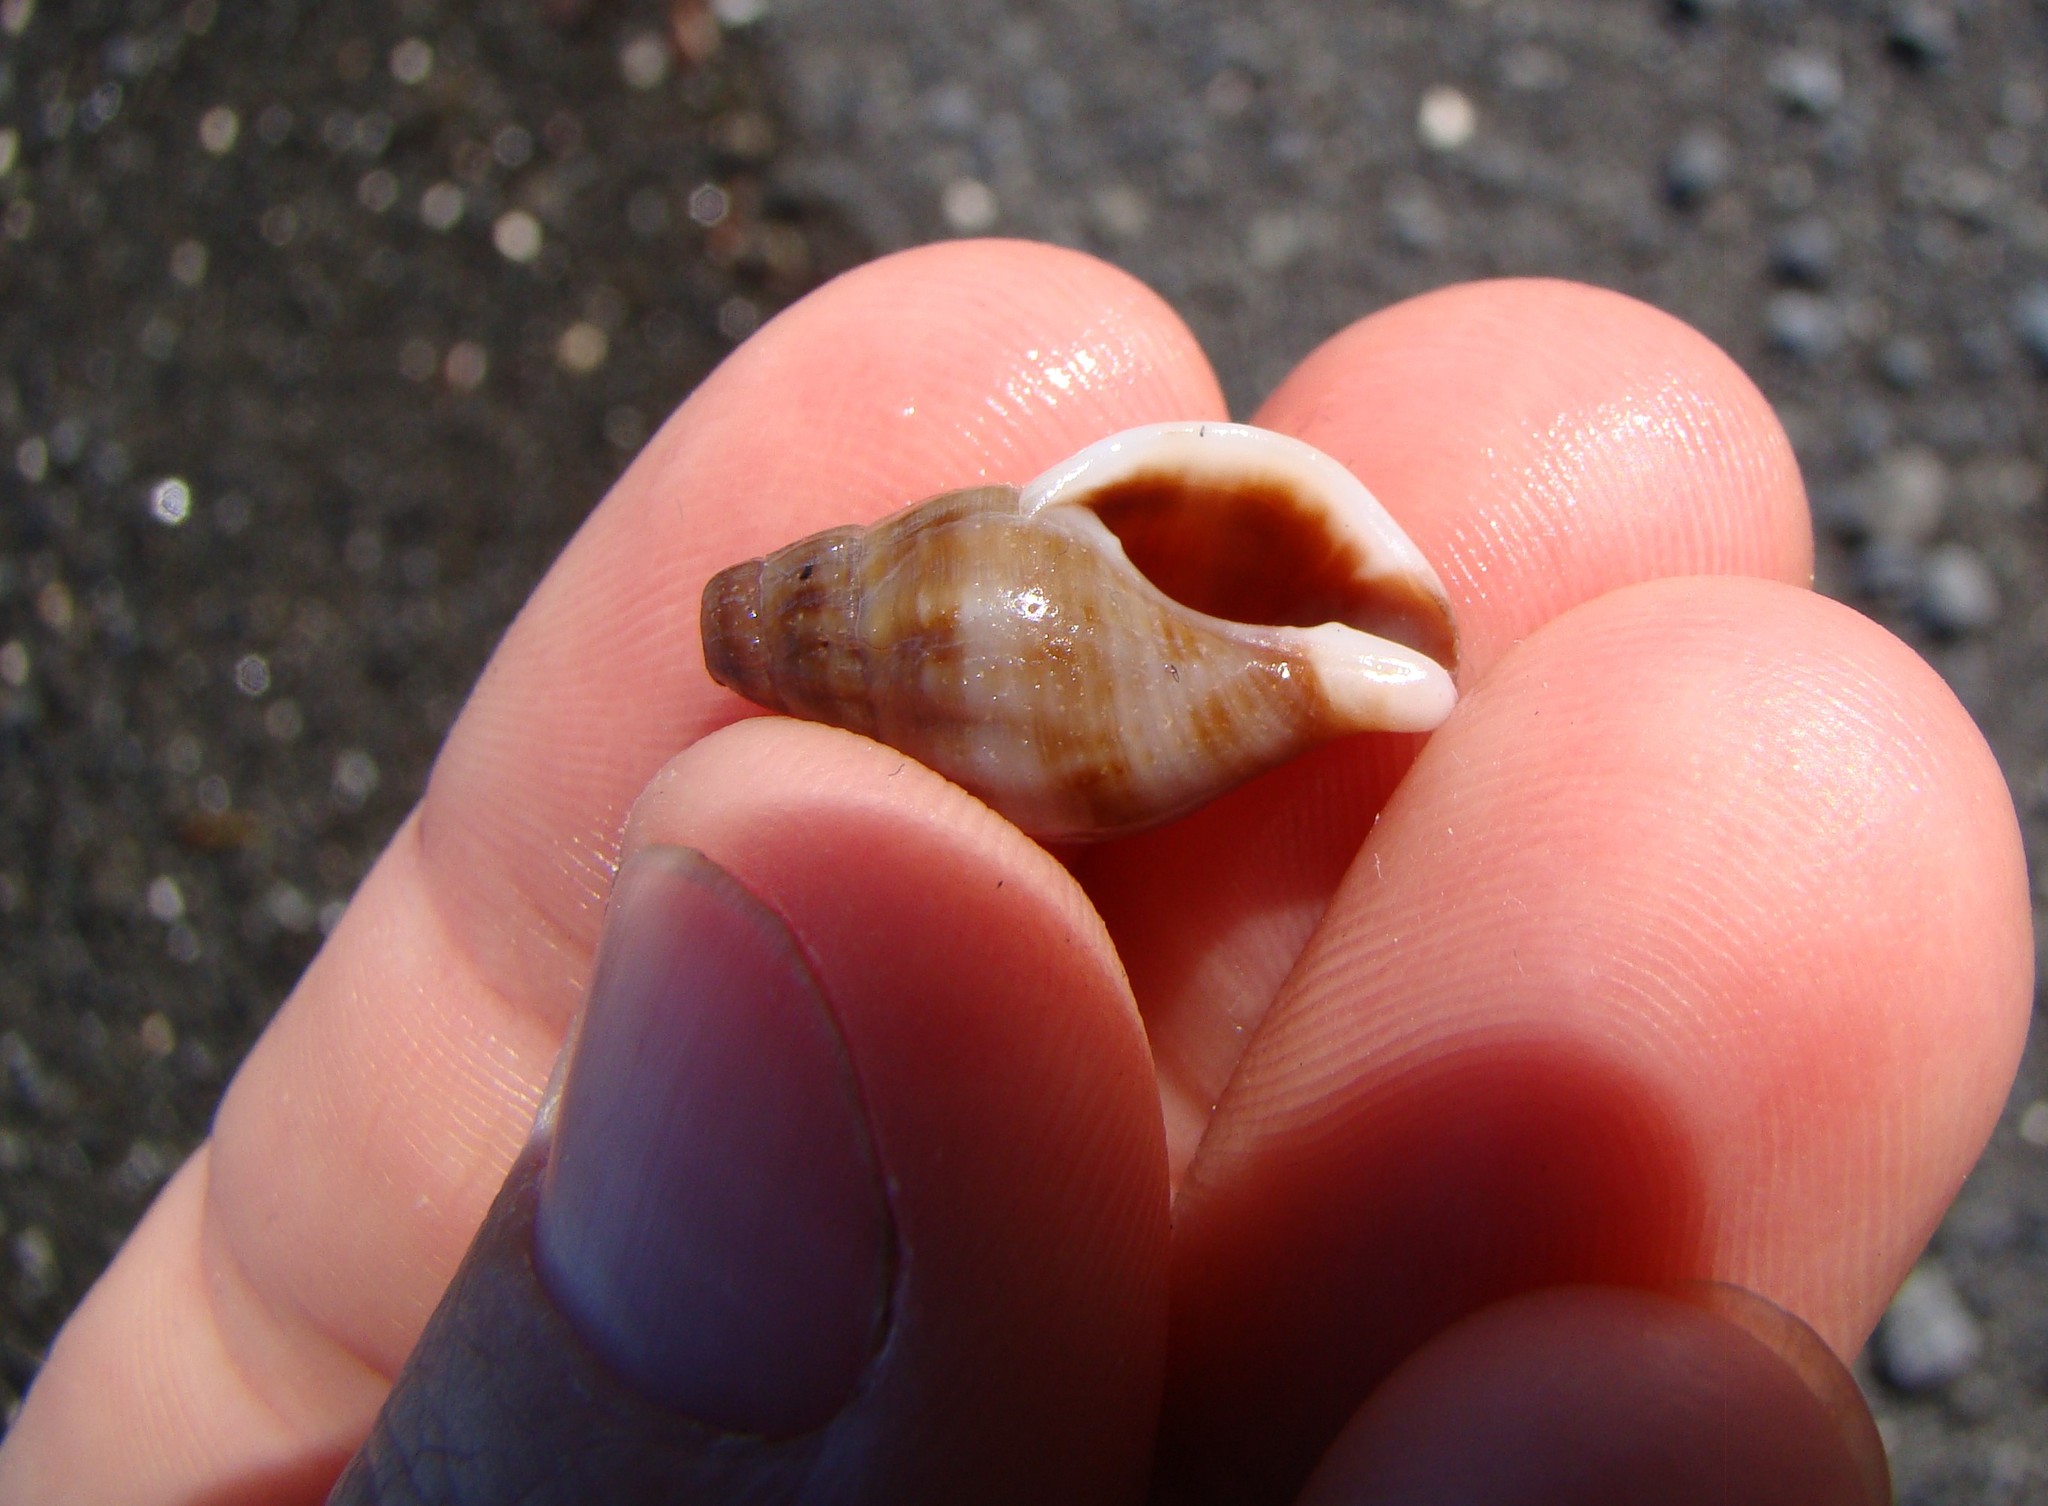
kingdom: Animalia
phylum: Mollusca
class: Gastropoda
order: Neogastropoda
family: Tudiclidae
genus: Buccinulum
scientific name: Buccinulum littorinoides
